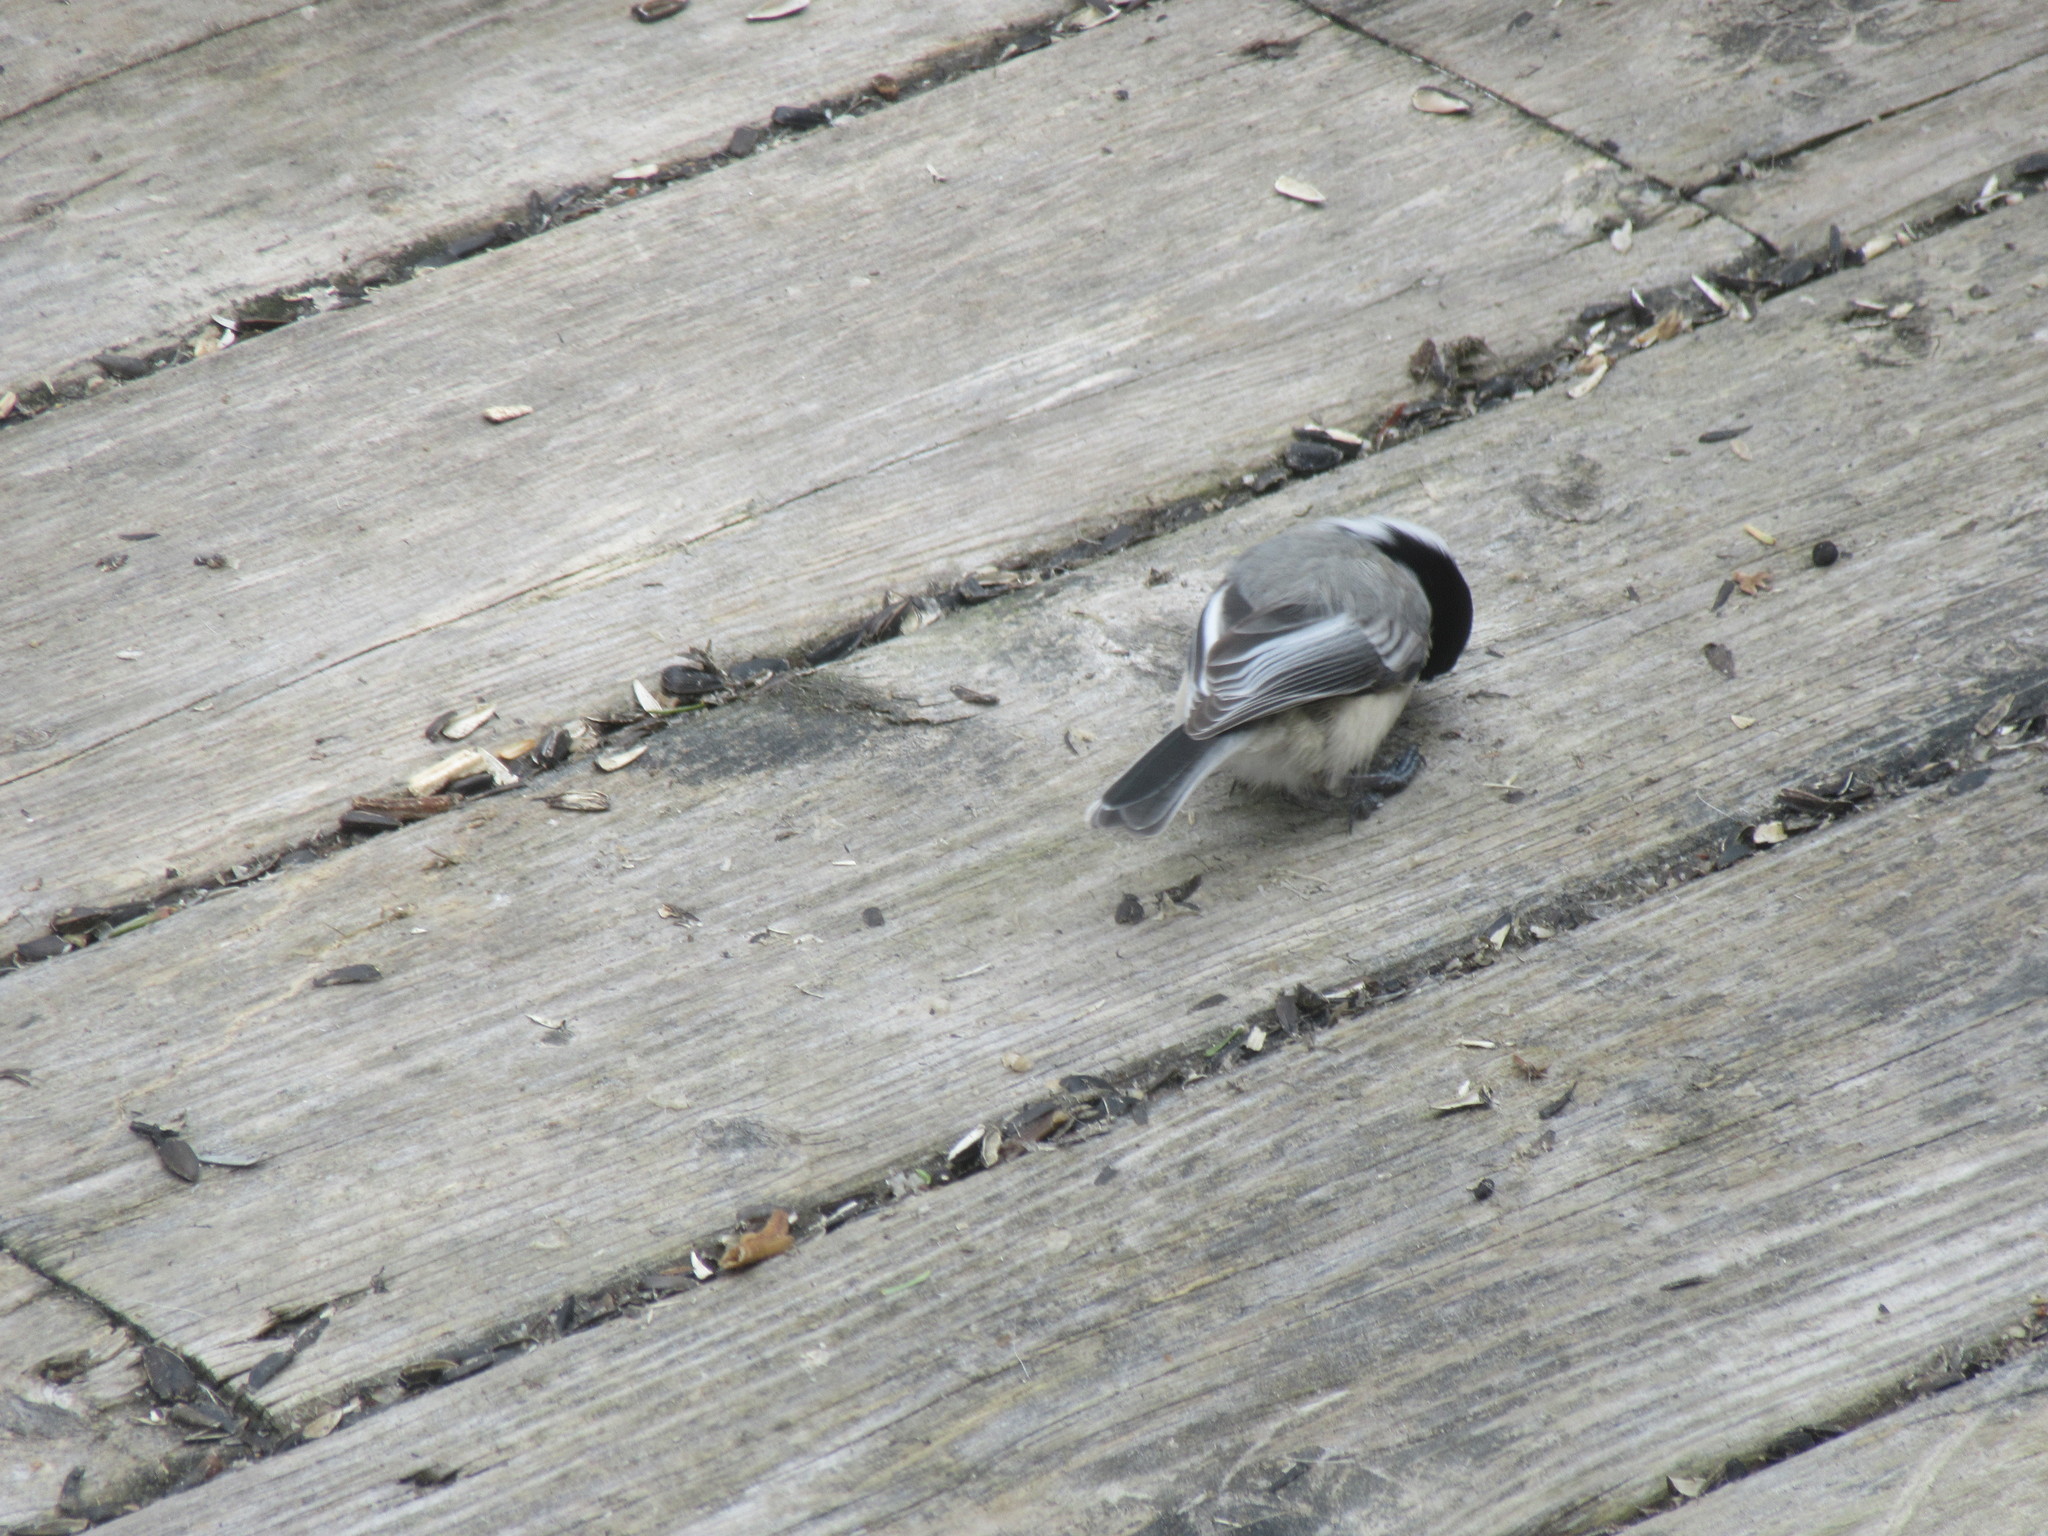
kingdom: Animalia
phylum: Chordata
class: Aves
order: Passeriformes
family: Paridae
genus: Poecile
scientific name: Poecile atricapillus
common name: Black-capped chickadee
